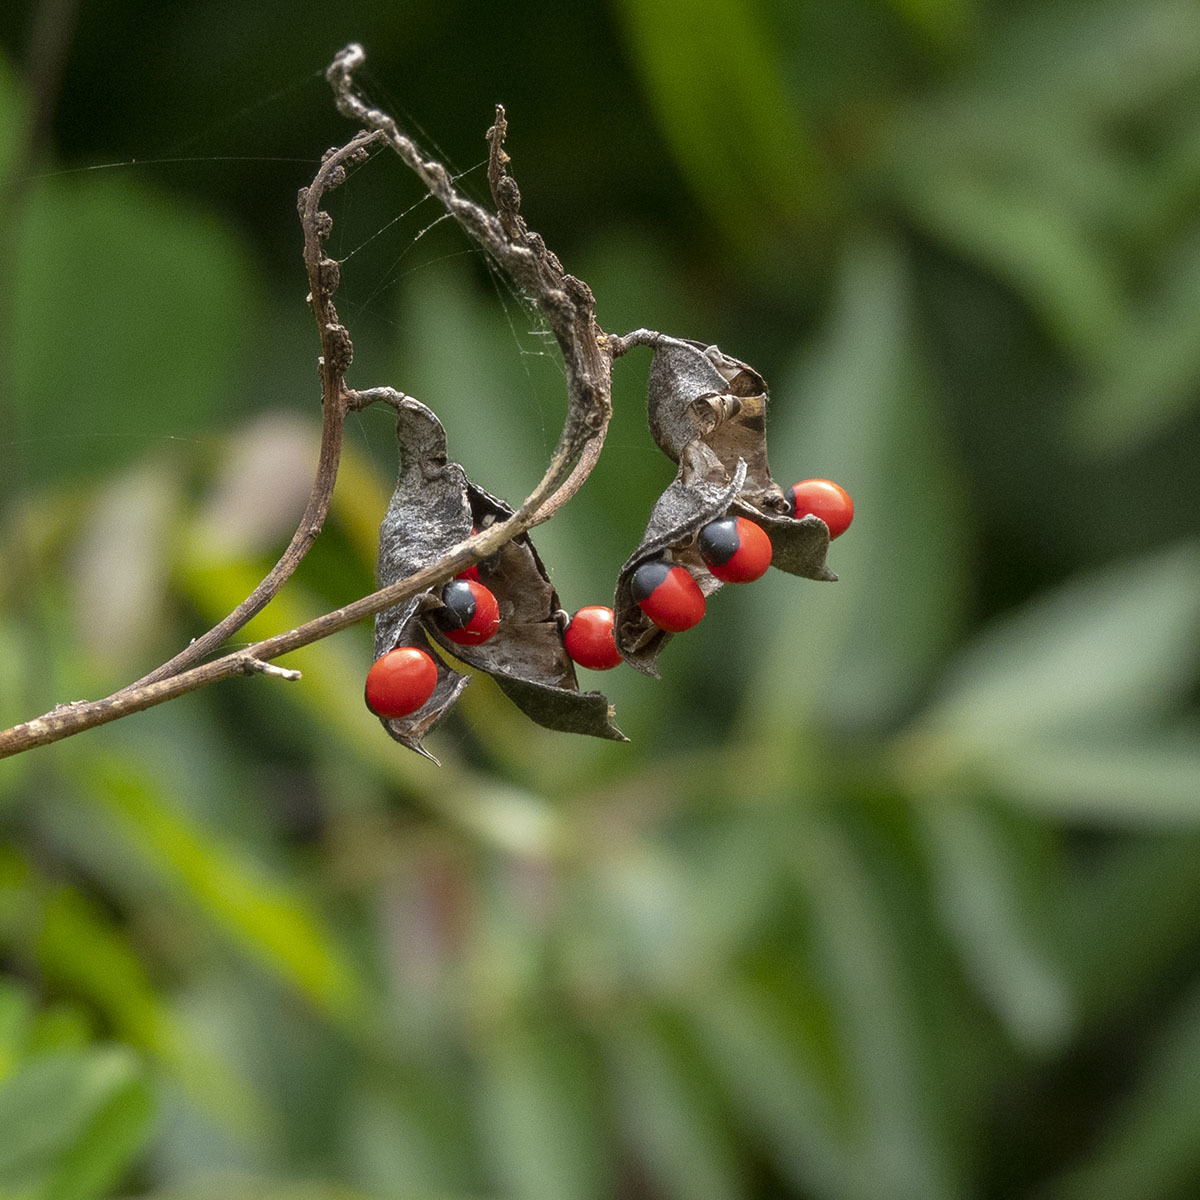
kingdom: Plantae
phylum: Tracheophyta
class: Magnoliopsida
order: Fabales
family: Fabaceae
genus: Abrus
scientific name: Abrus precatorius
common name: Rosarypea
